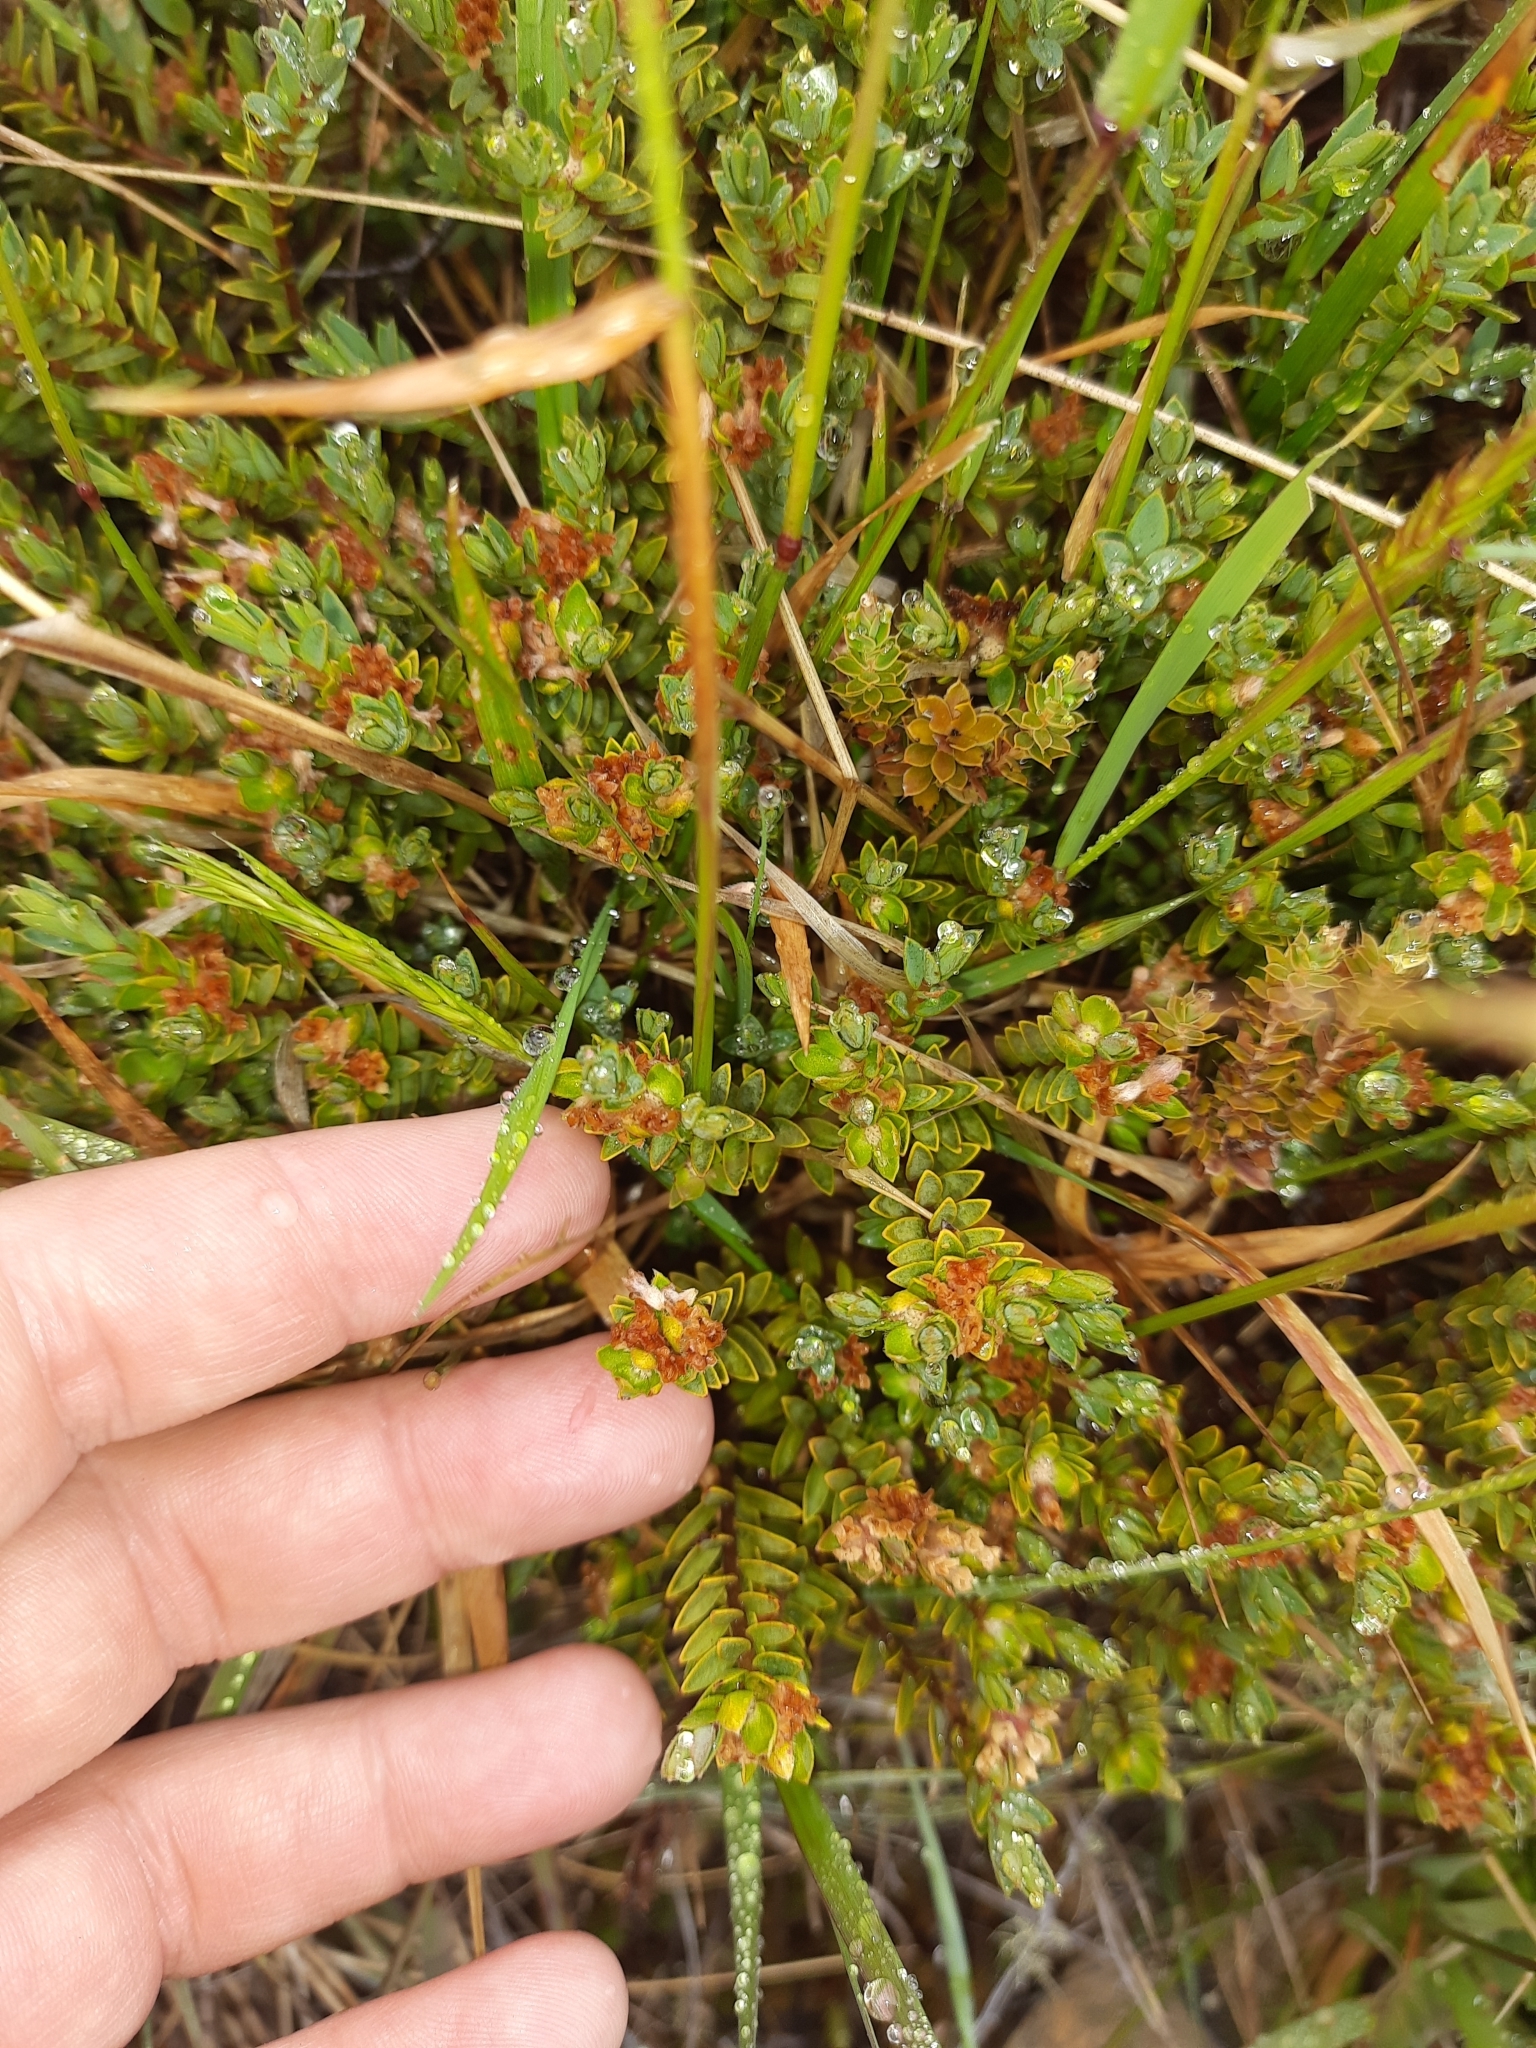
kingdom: Plantae
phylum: Tracheophyta
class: Magnoliopsida
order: Malvales
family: Thymelaeaceae
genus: Pimelea
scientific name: Pimelea oreophila
